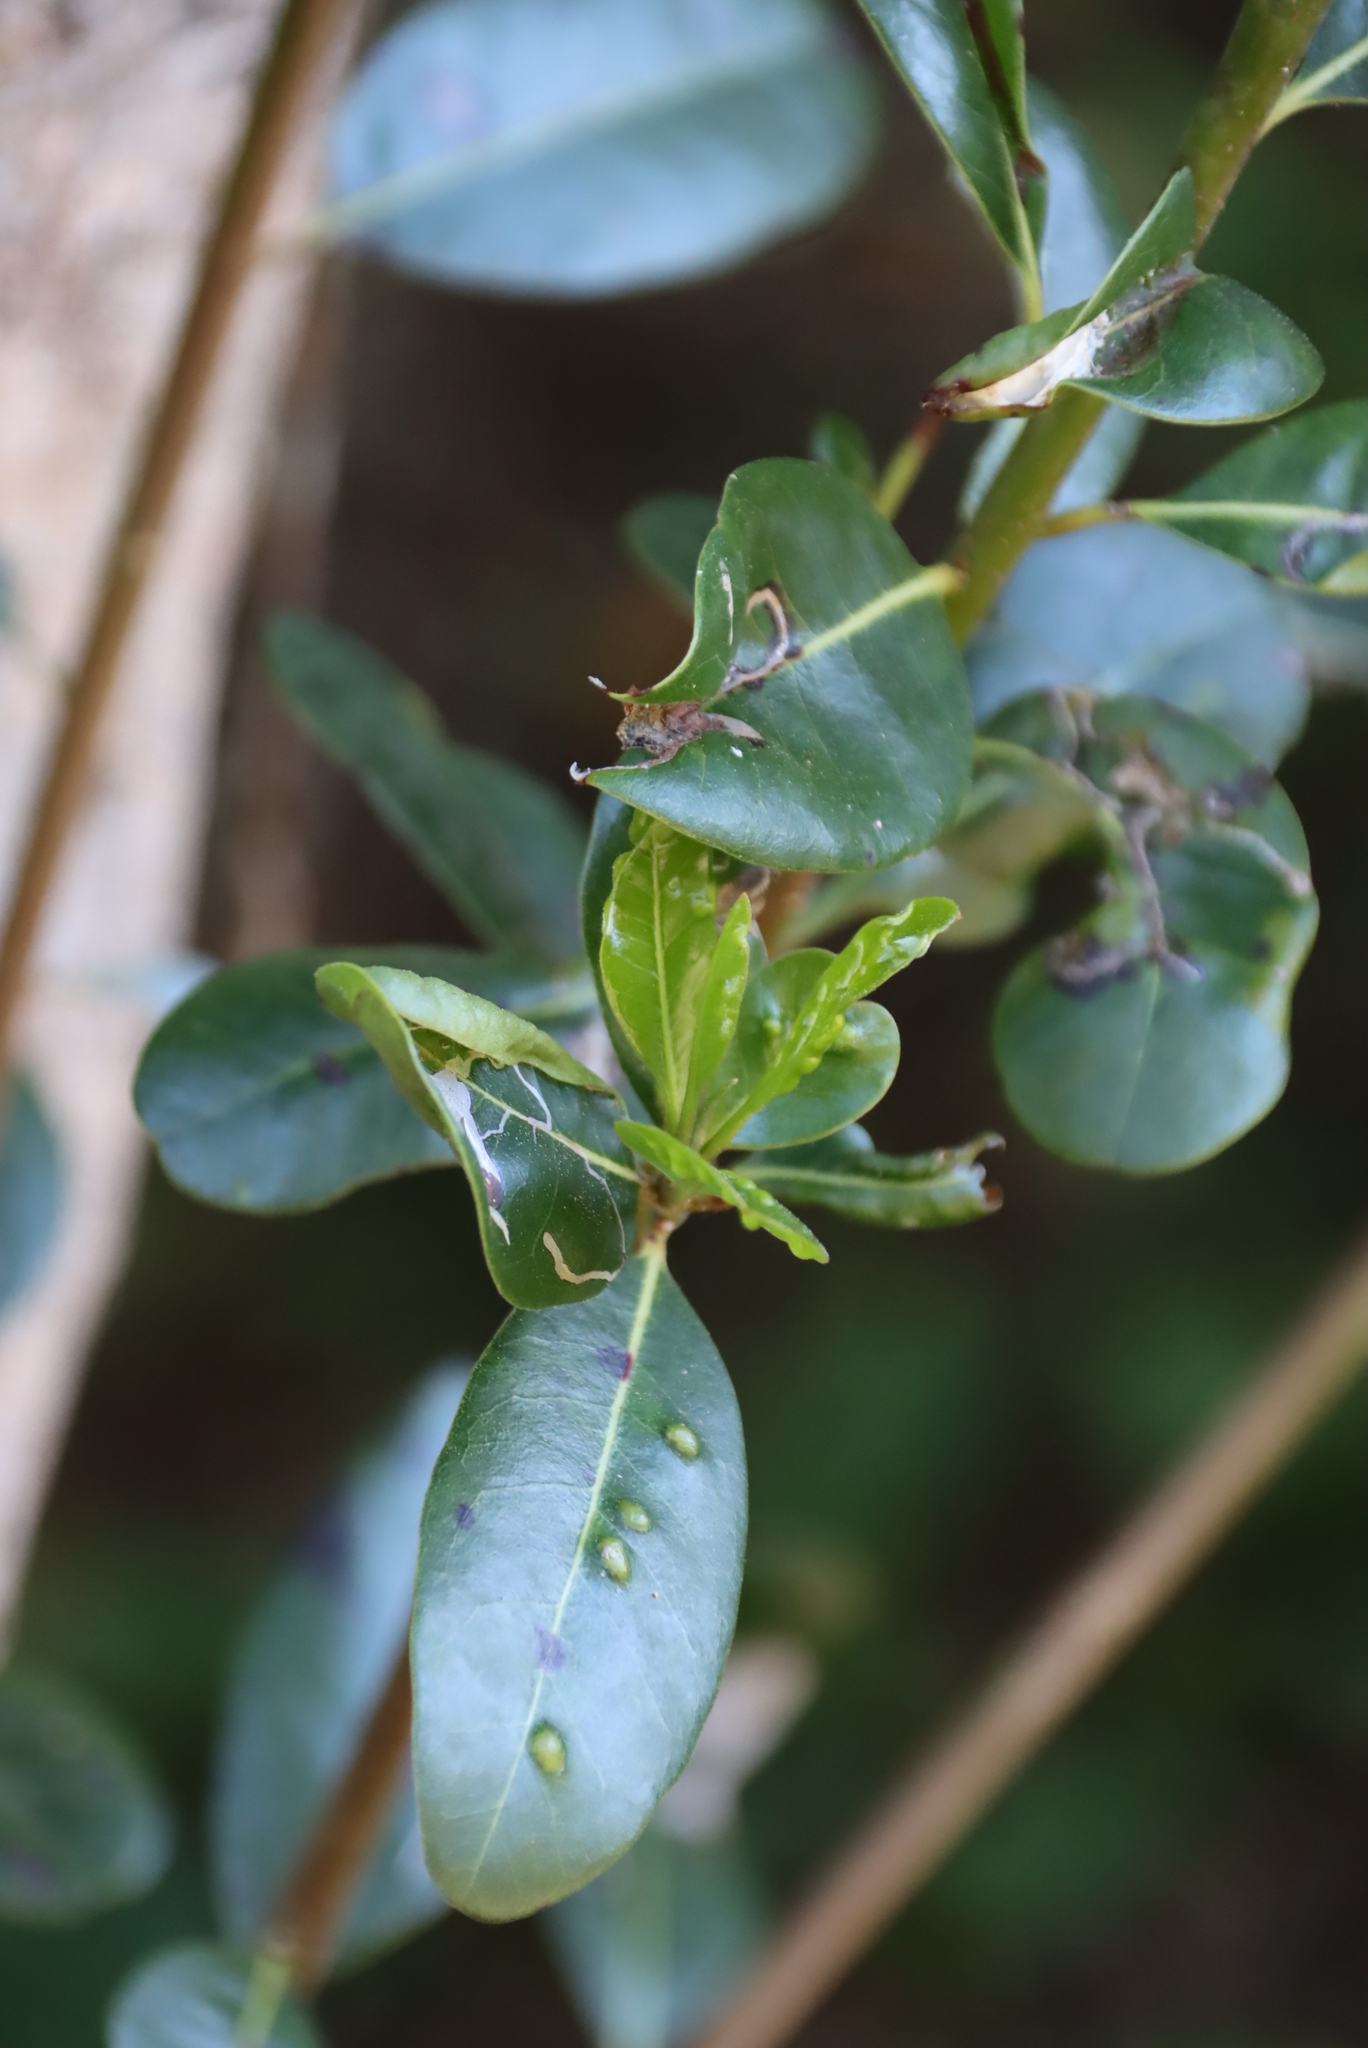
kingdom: Plantae
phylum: Tracheophyta
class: Magnoliopsida
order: Ericales
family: Sapotaceae
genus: Sideroxylon
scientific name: Sideroxylon inerme
